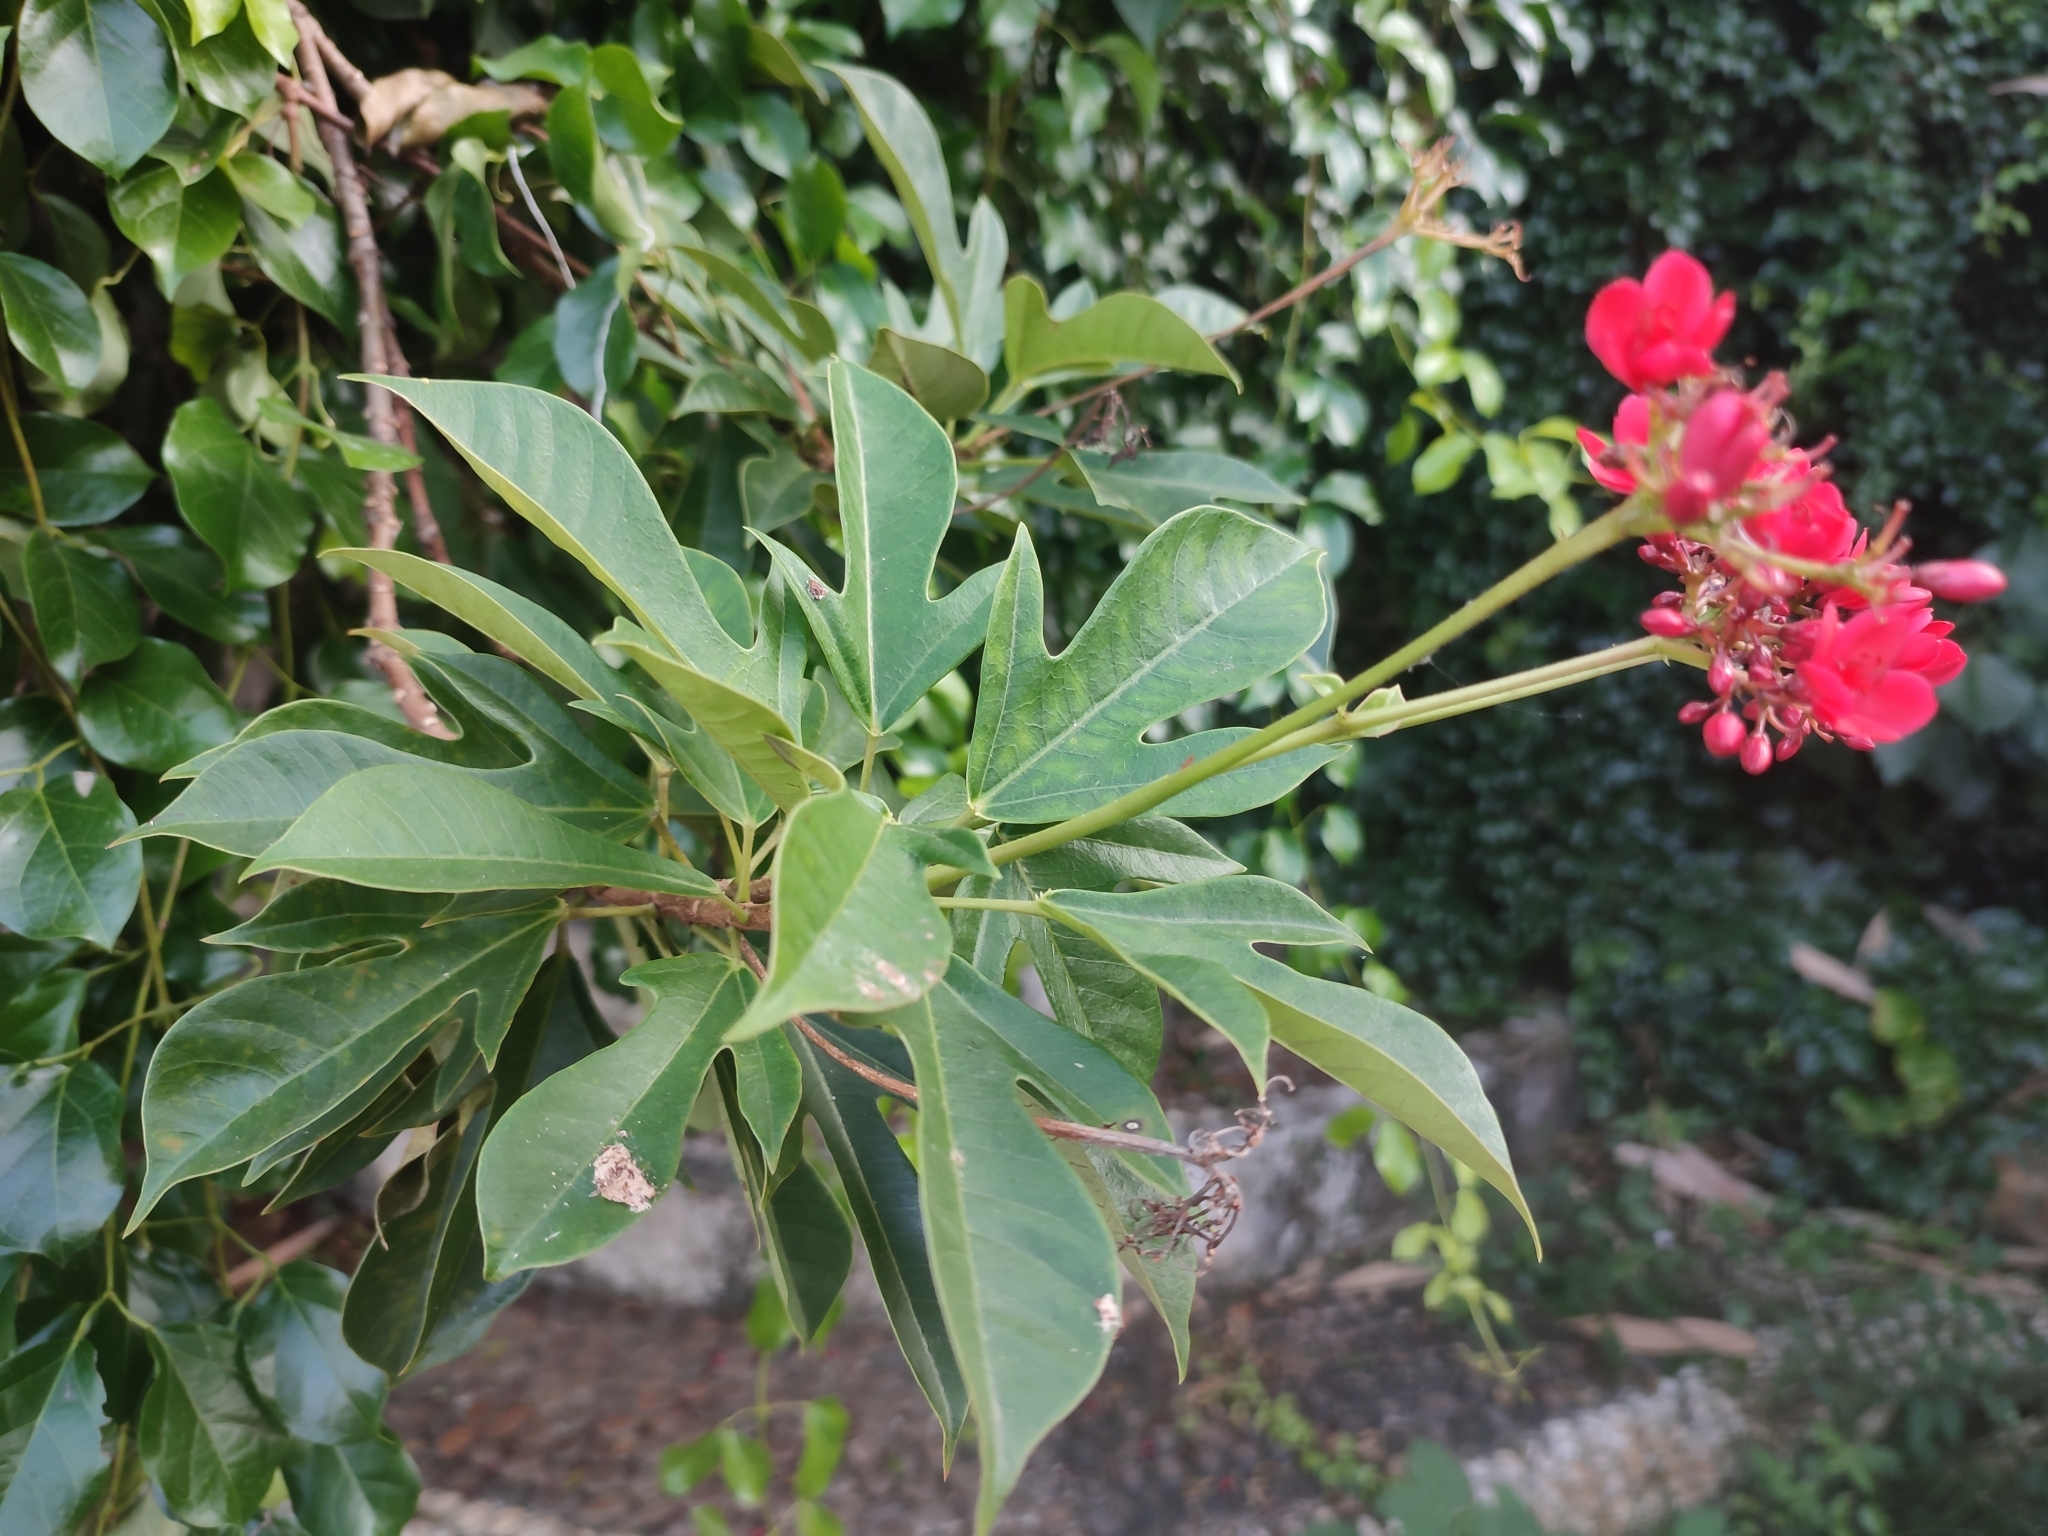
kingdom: Plantae
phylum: Tracheophyta
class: Magnoliopsida
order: Malpighiales
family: Euphorbiaceae
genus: Jatropha
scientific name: Jatropha integerrima
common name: Peregrina
